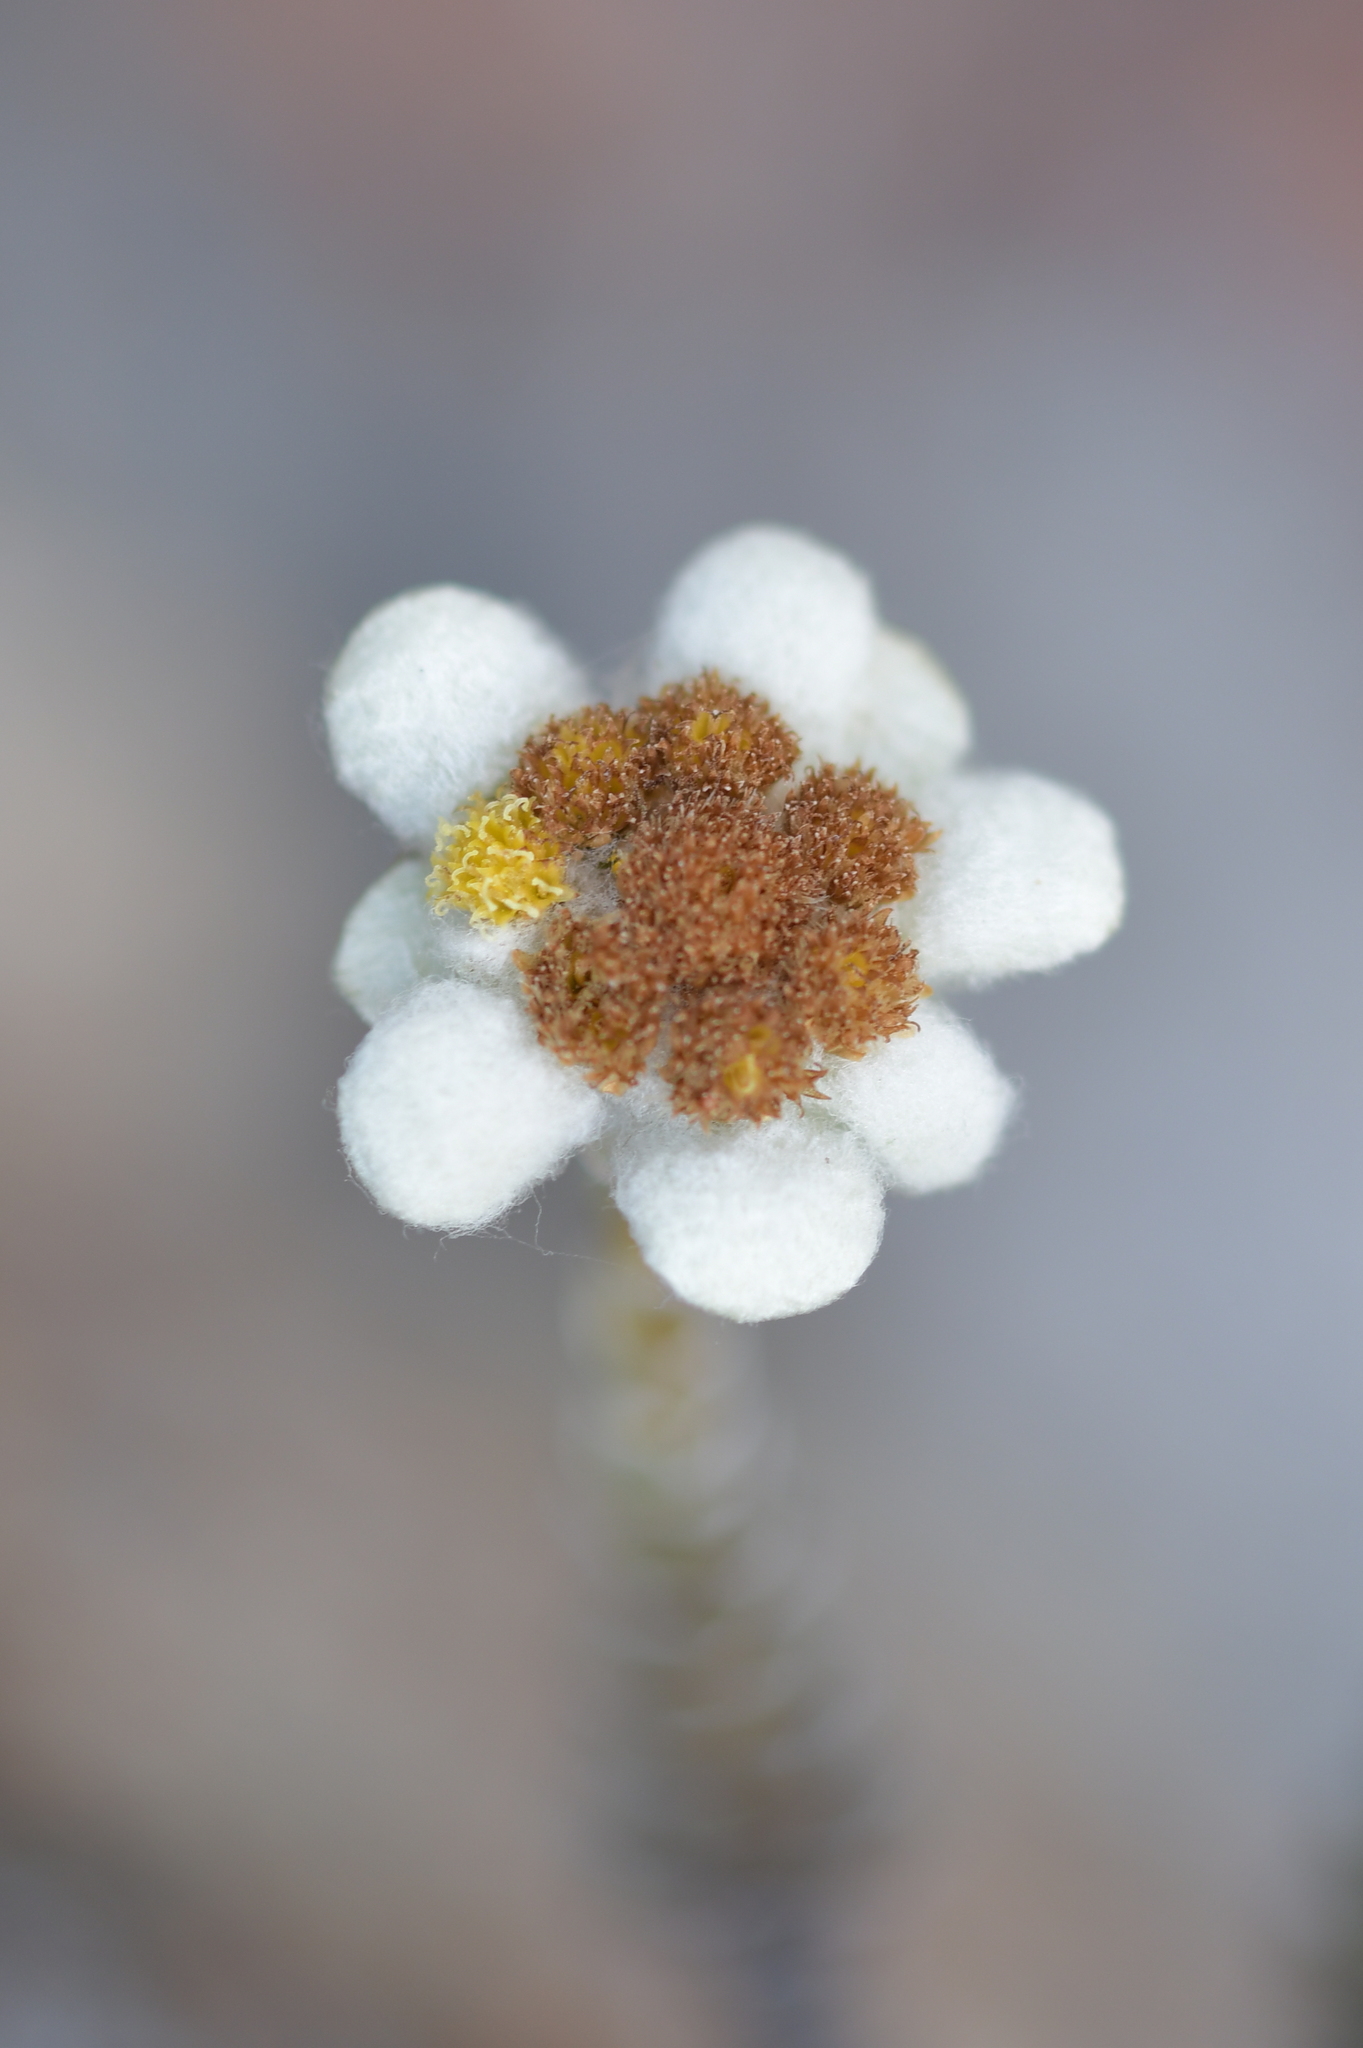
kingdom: Plantae
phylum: Tracheophyta
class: Magnoliopsida
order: Asterales
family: Asteraceae
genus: Leucogenes
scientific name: Leucogenes grandiceps
